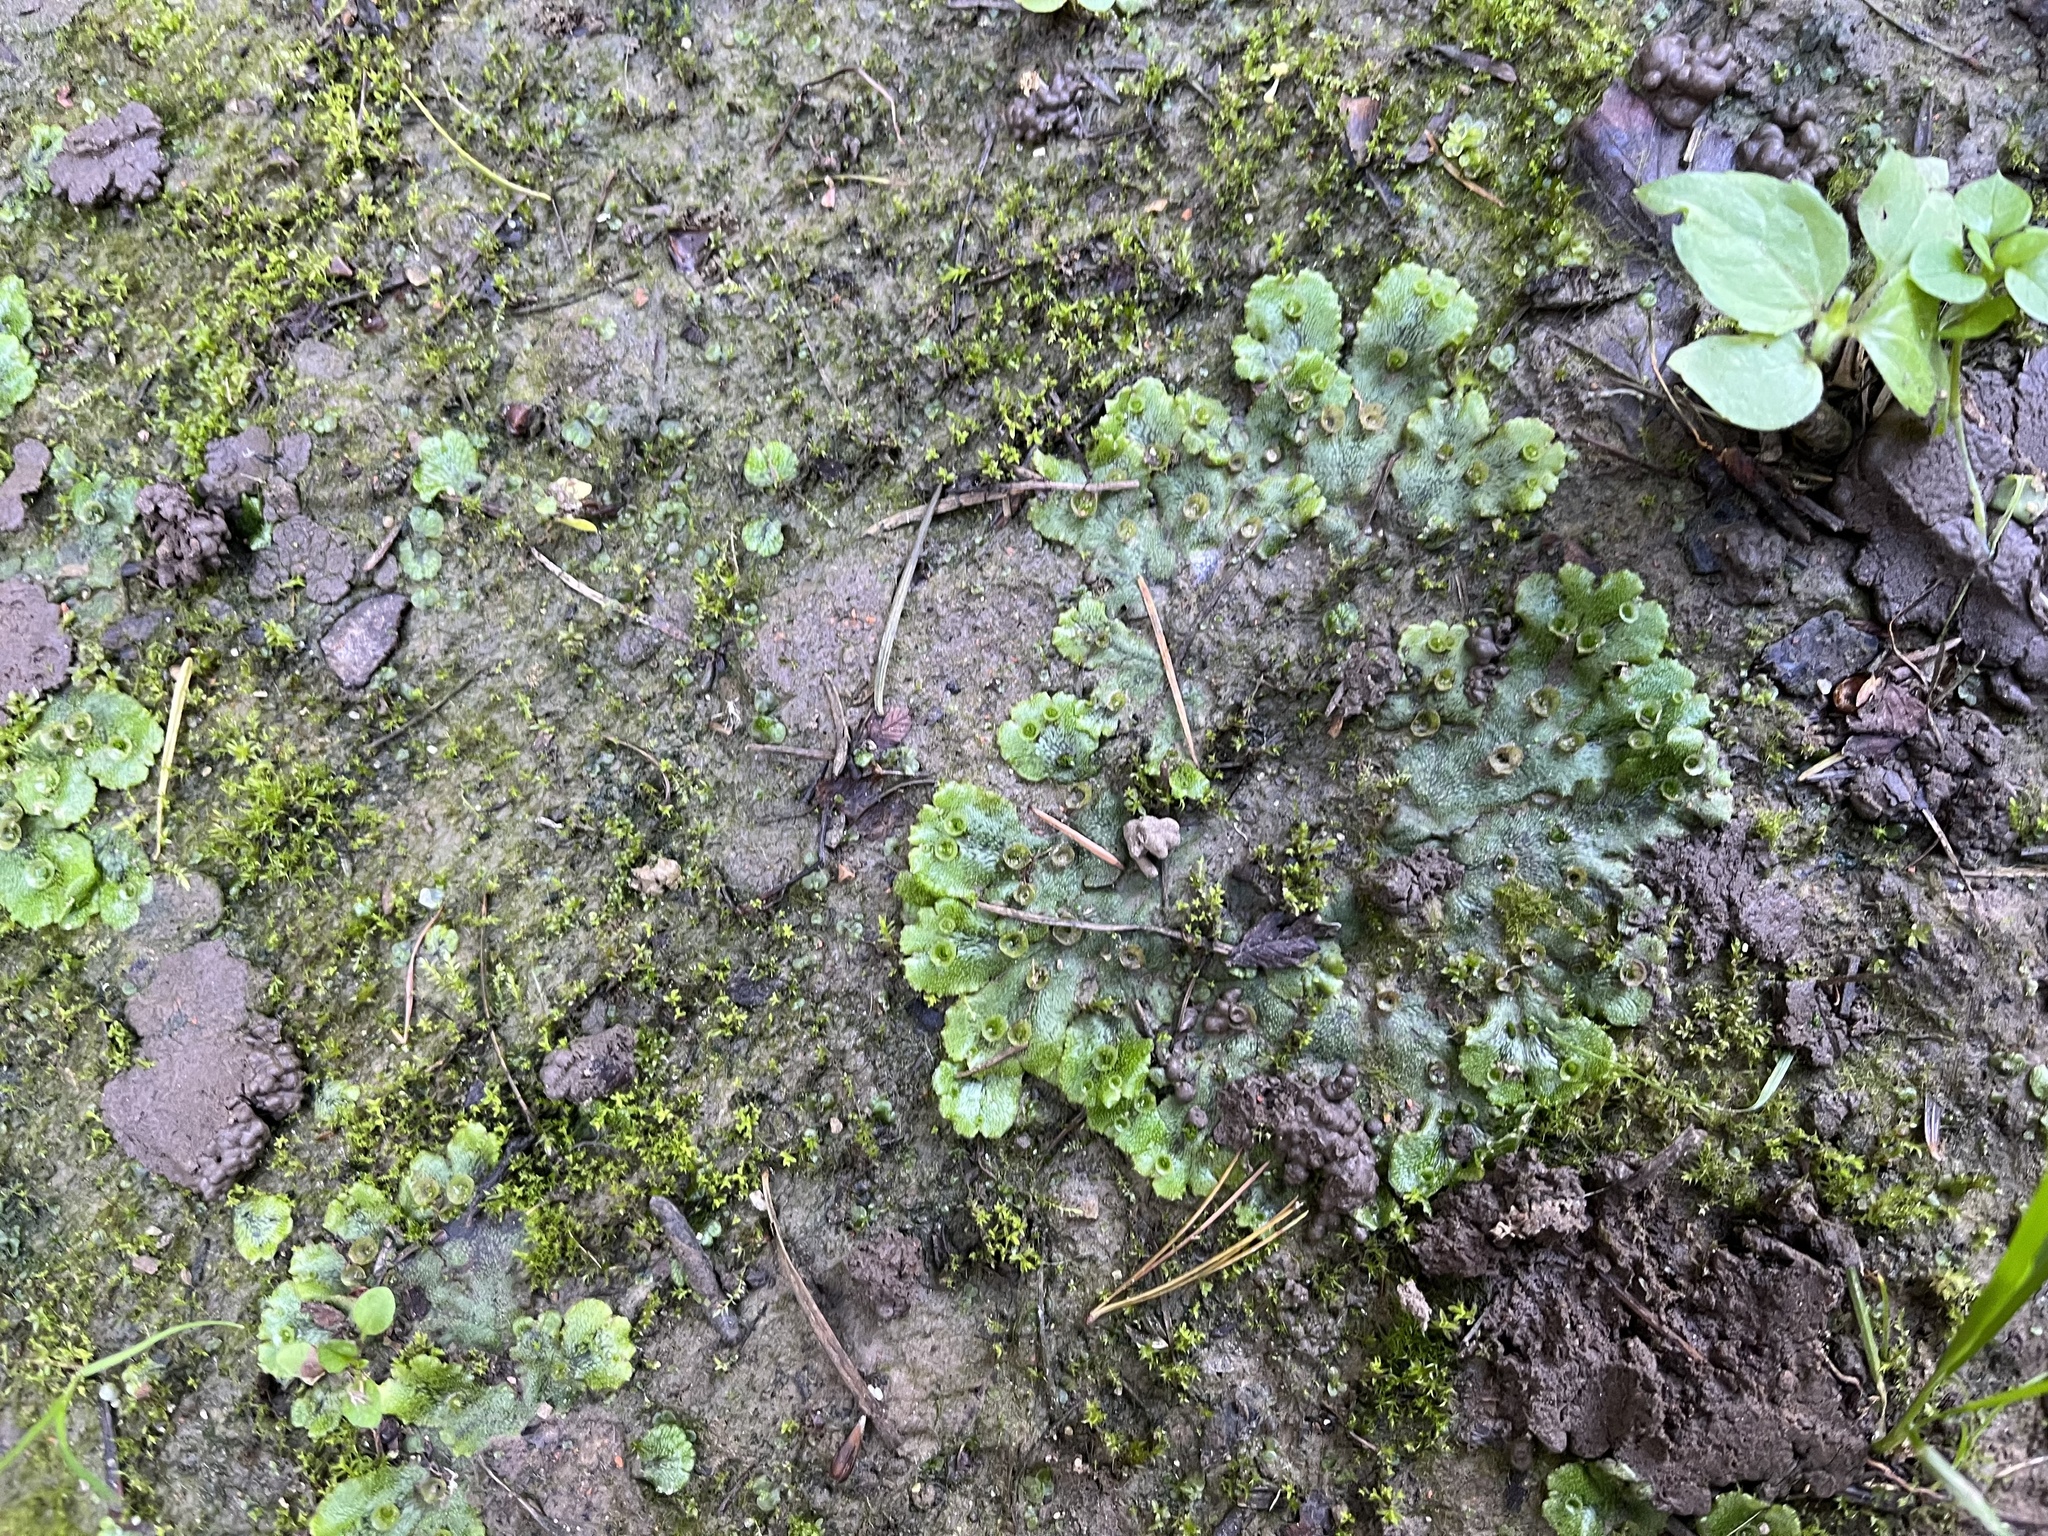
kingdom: Plantae
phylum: Marchantiophyta
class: Marchantiopsida
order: Marchantiales
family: Marchantiaceae
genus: Marchantia
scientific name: Marchantia polymorpha
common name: Common liverwort
